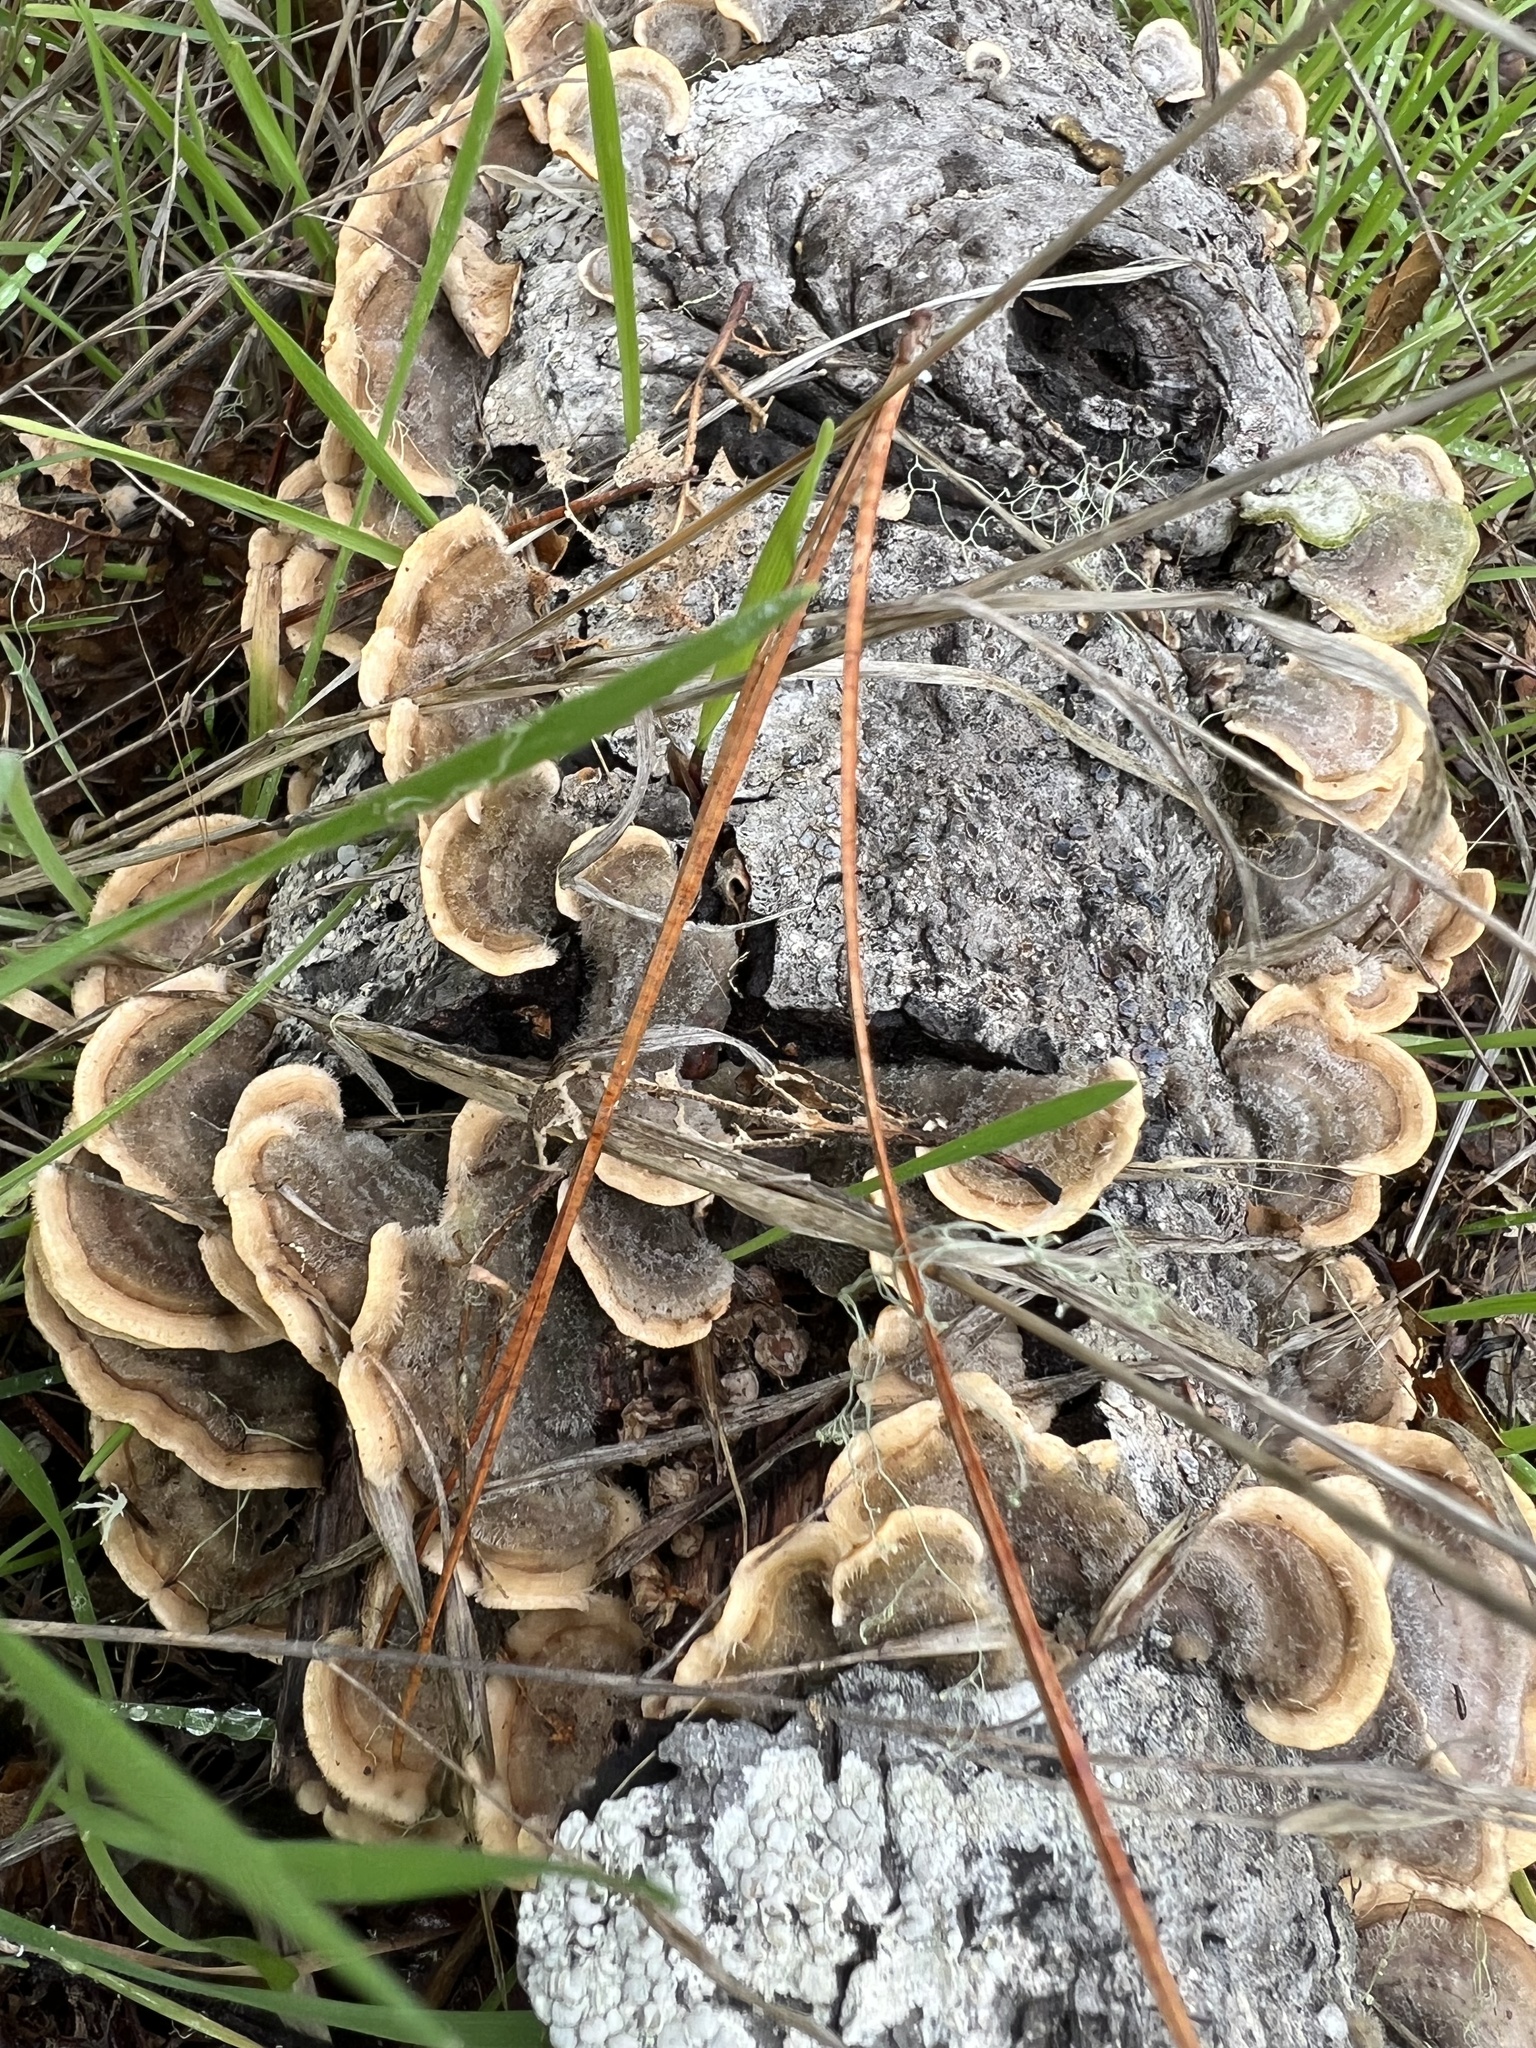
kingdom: Fungi
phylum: Basidiomycota
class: Agaricomycetes
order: Russulales
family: Stereaceae
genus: Stereum
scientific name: Stereum hirsutum
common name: Hairy curtain crust
